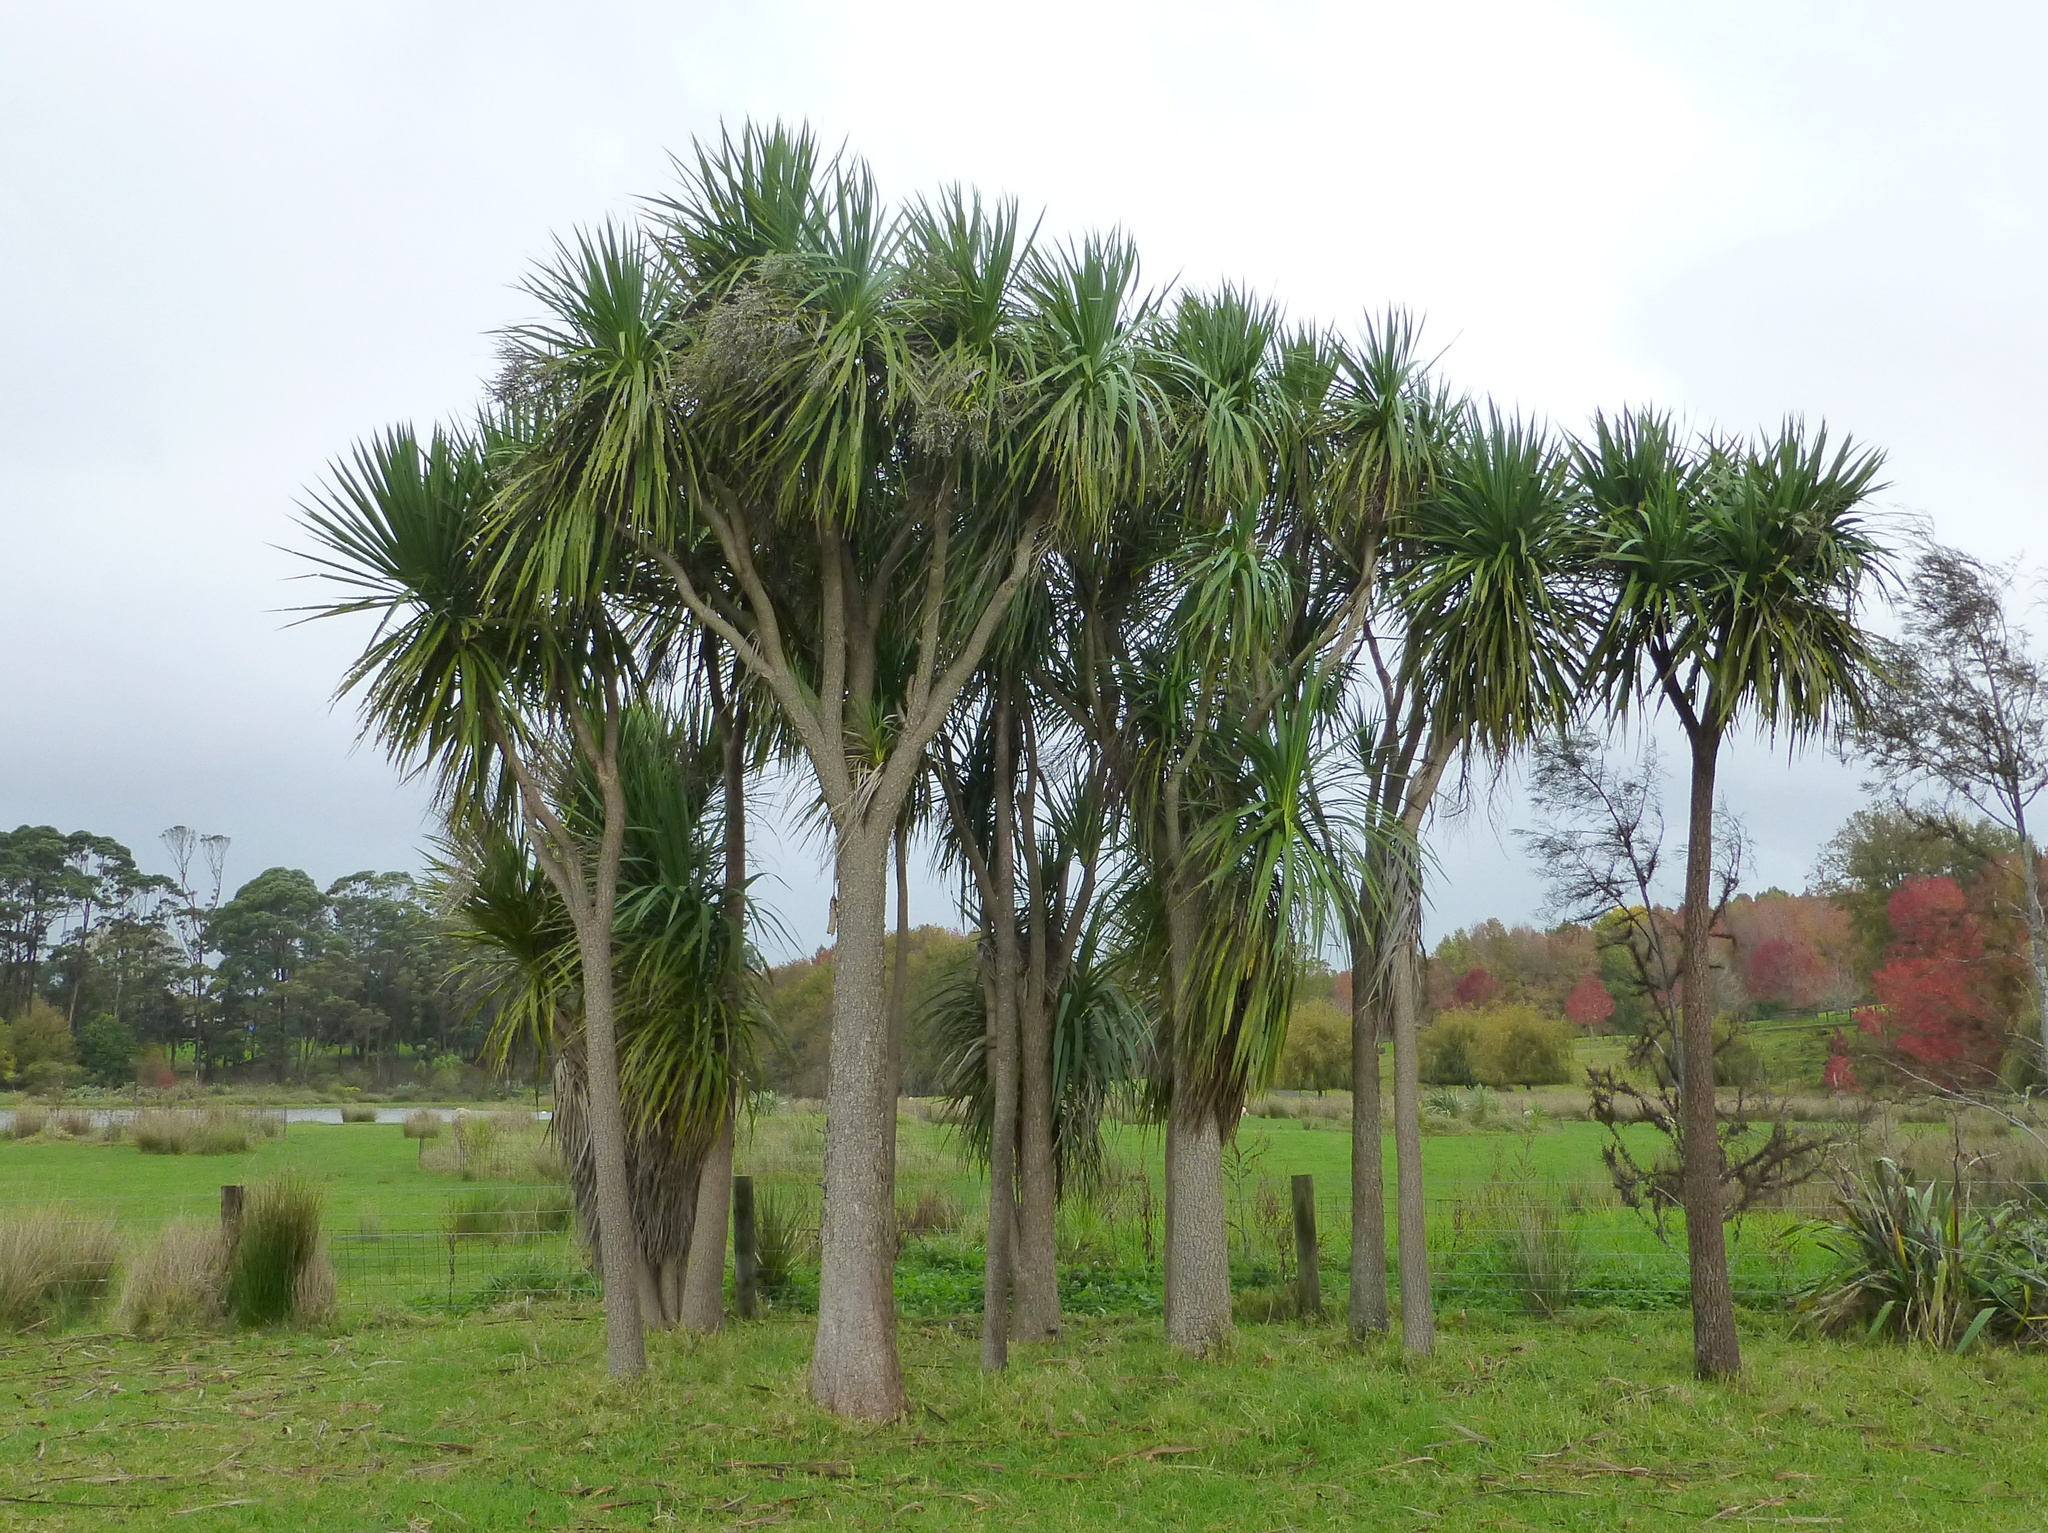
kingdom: Plantae
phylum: Tracheophyta
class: Liliopsida
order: Asparagales
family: Asparagaceae
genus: Cordyline
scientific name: Cordyline australis
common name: Cabbage-palm
